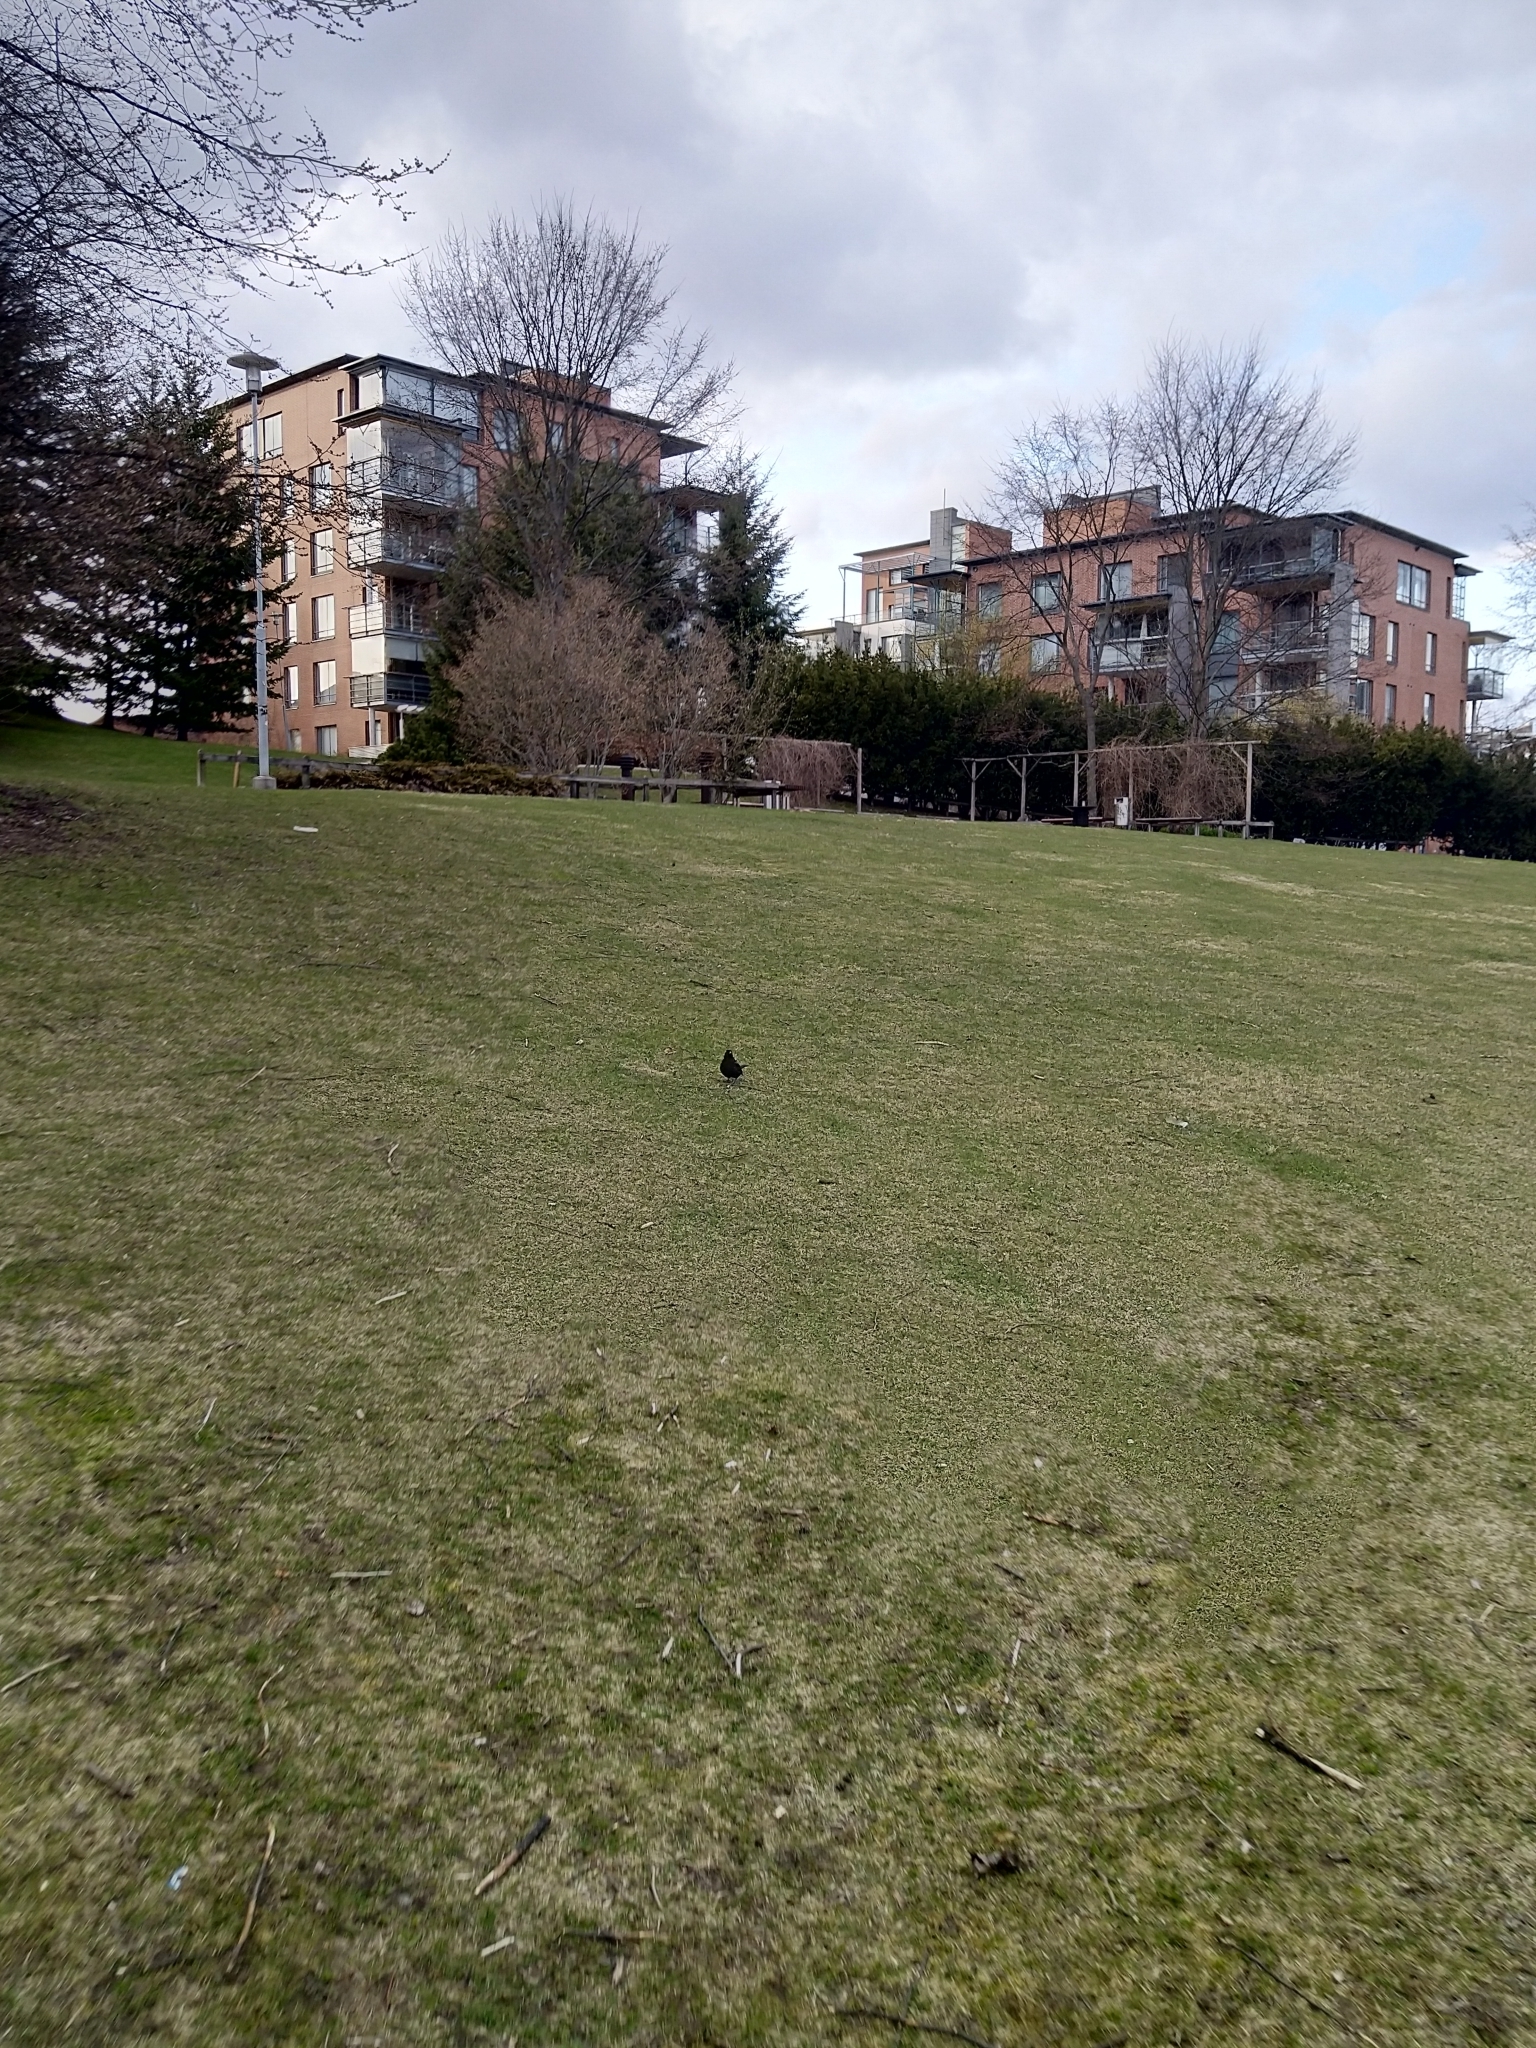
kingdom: Animalia
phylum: Chordata
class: Aves
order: Passeriformes
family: Turdidae
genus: Turdus
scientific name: Turdus merula
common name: Common blackbird
